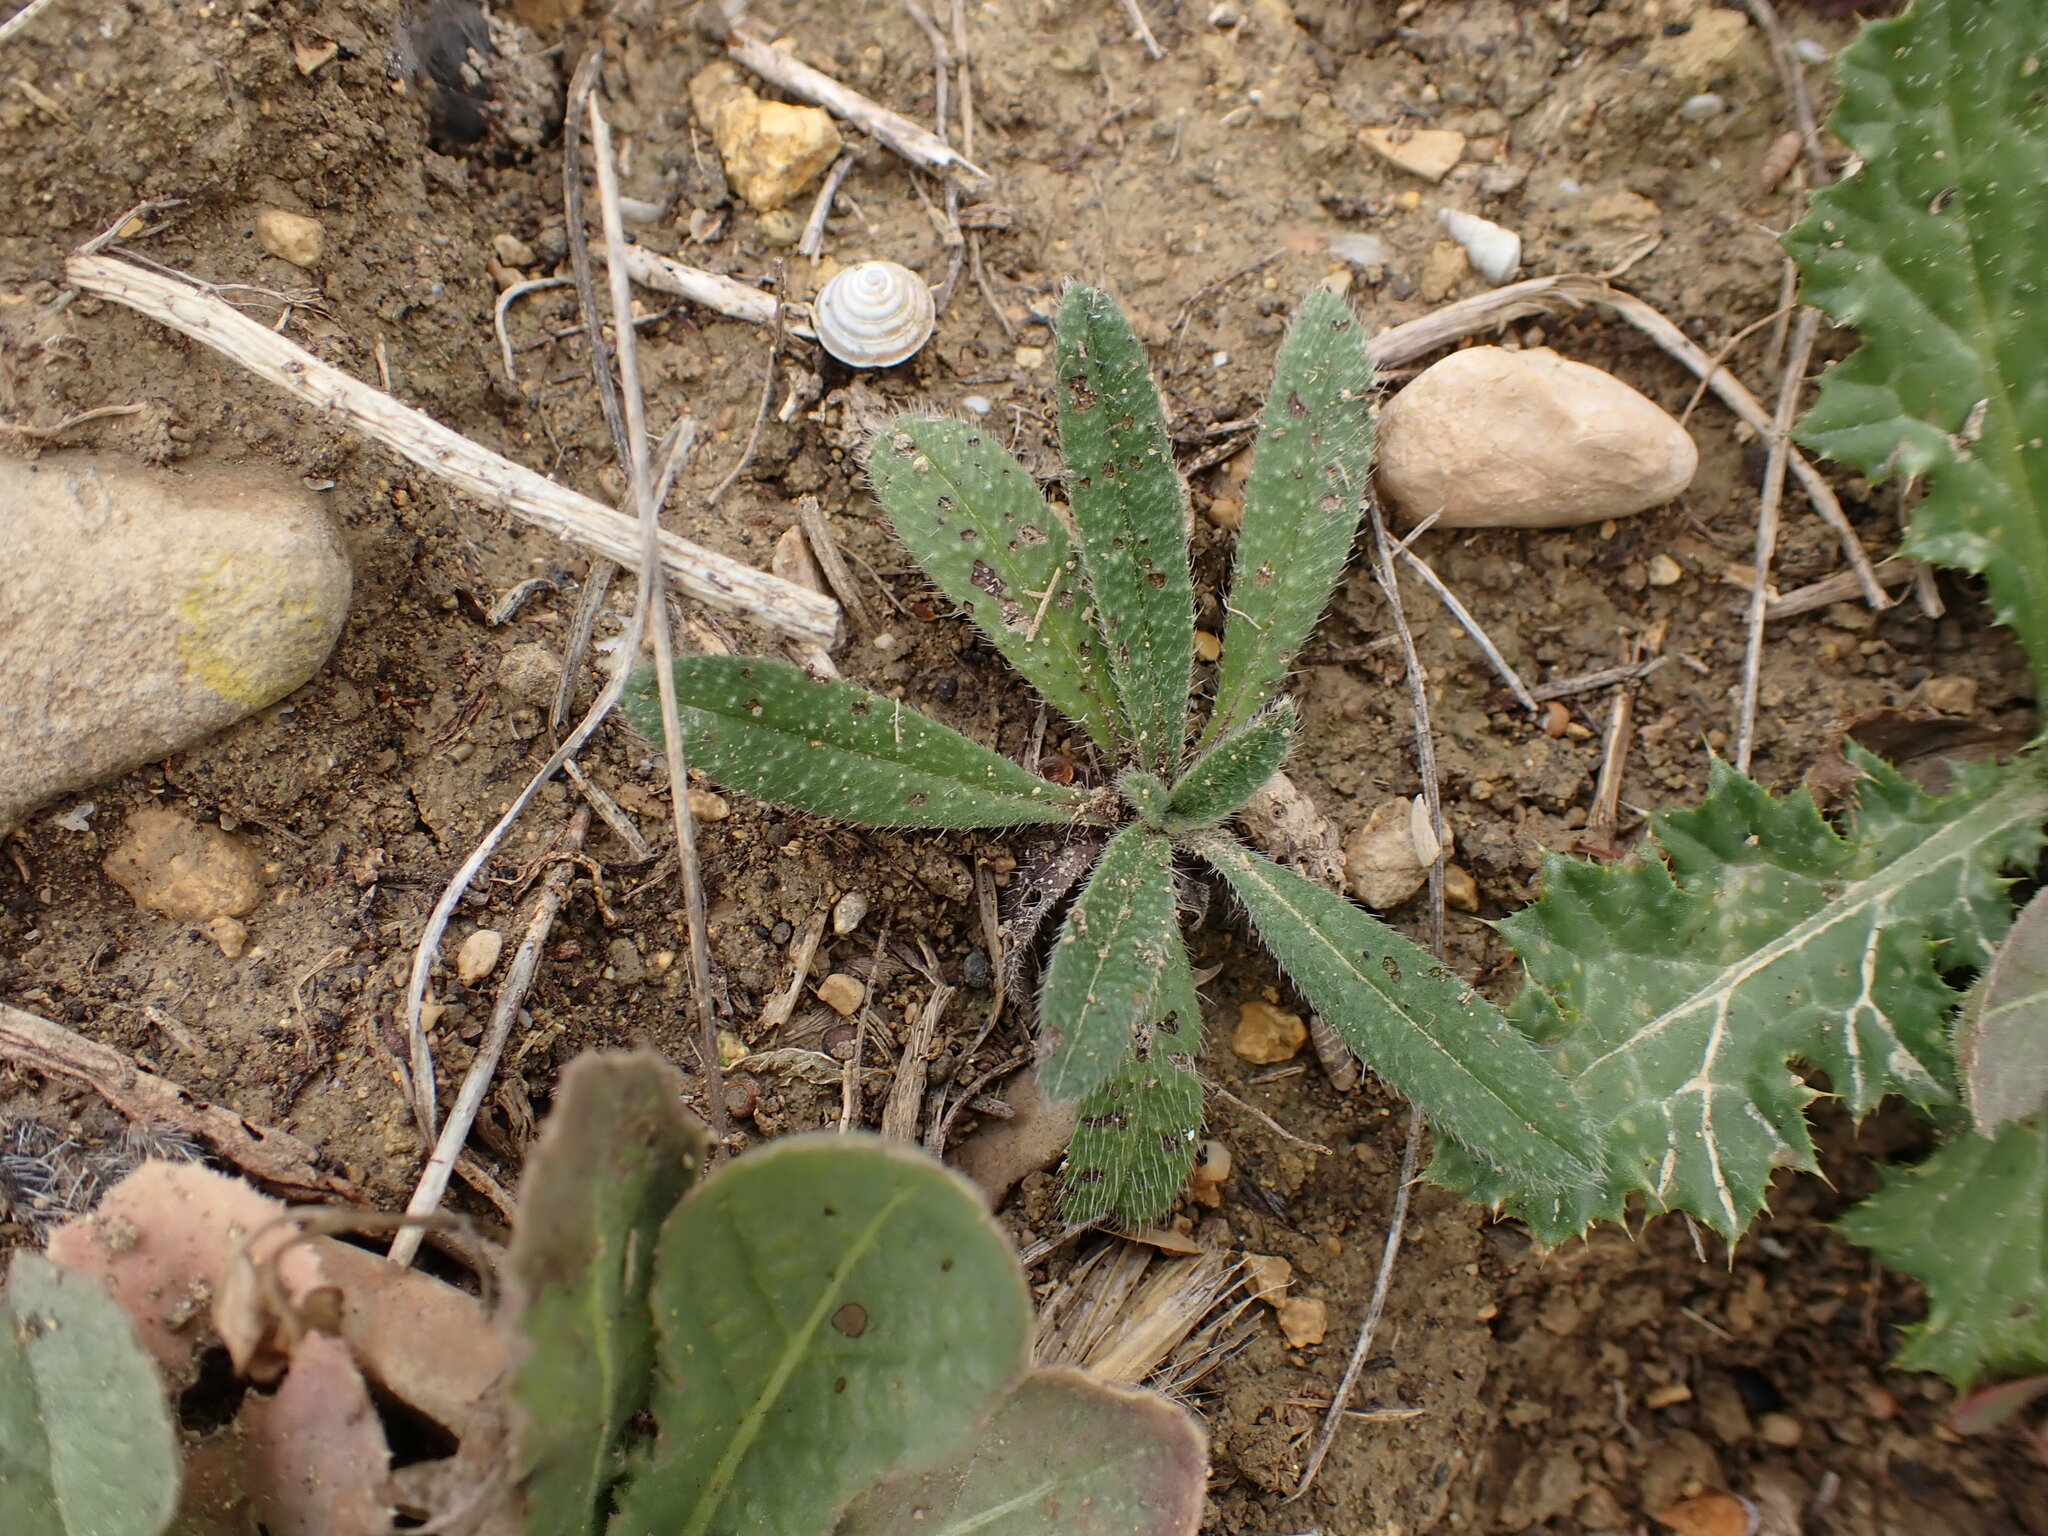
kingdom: Plantae
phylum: Tracheophyta
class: Magnoliopsida
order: Boraginales
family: Boraginaceae
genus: Echium
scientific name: Echium vulgare
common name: Common viper's bugloss
